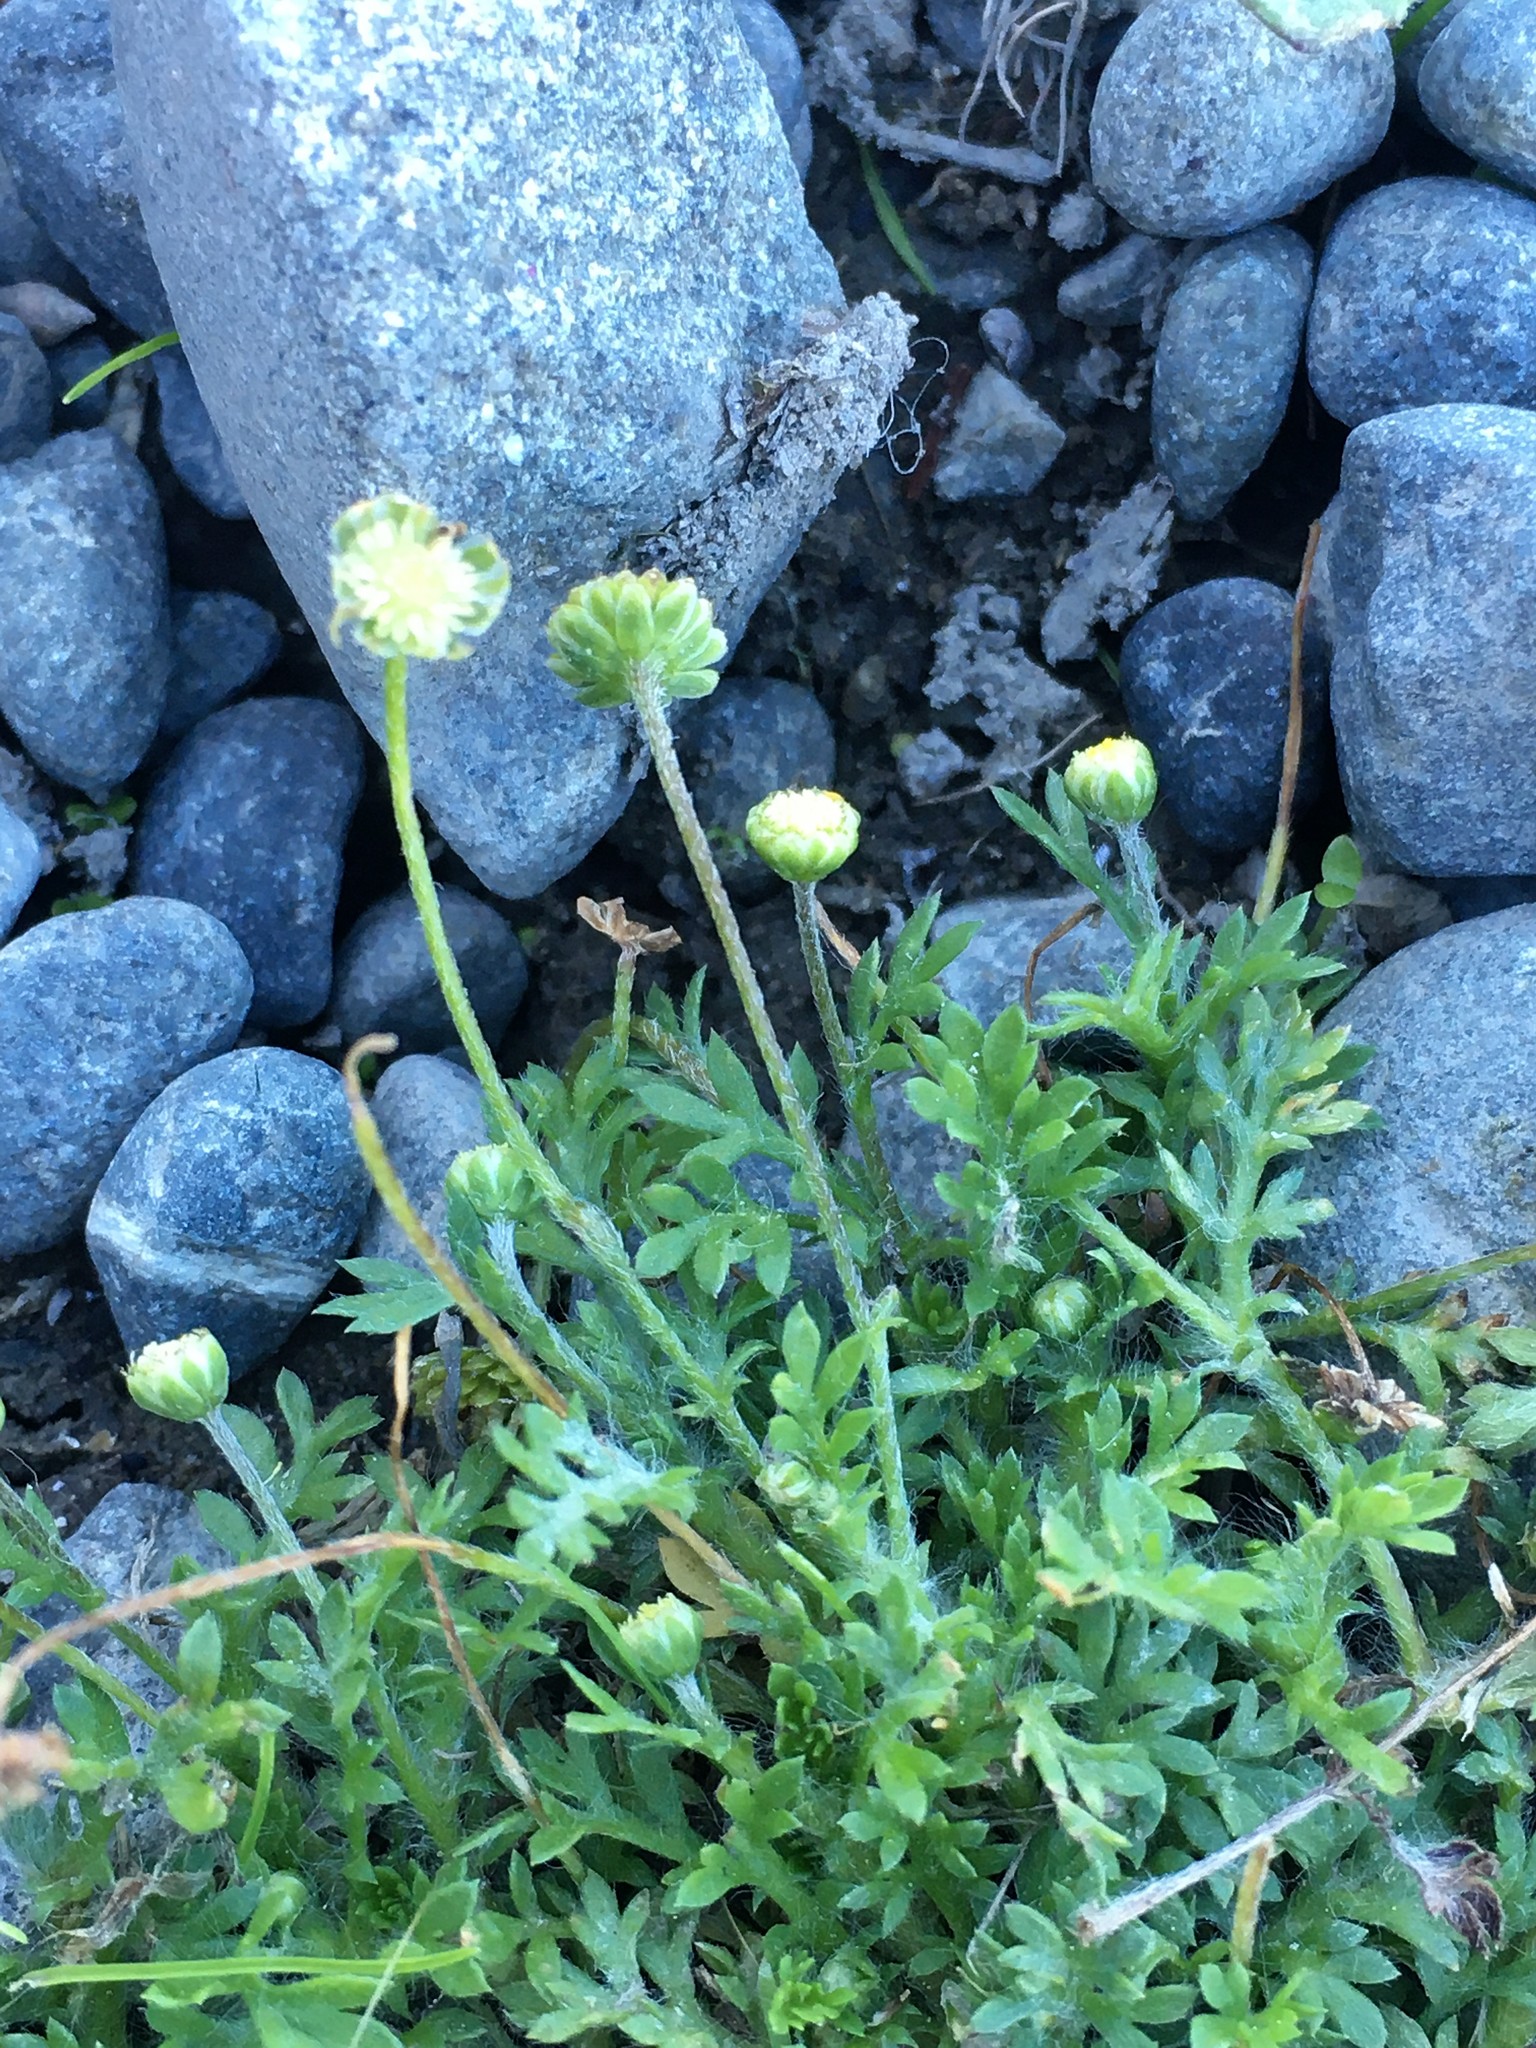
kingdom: Plantae
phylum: Tracheophyta
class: Magnoliopsida
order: Asterales
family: Asteraceae
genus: Cotula
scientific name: Cotula australis
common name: Australian waterbuttons
